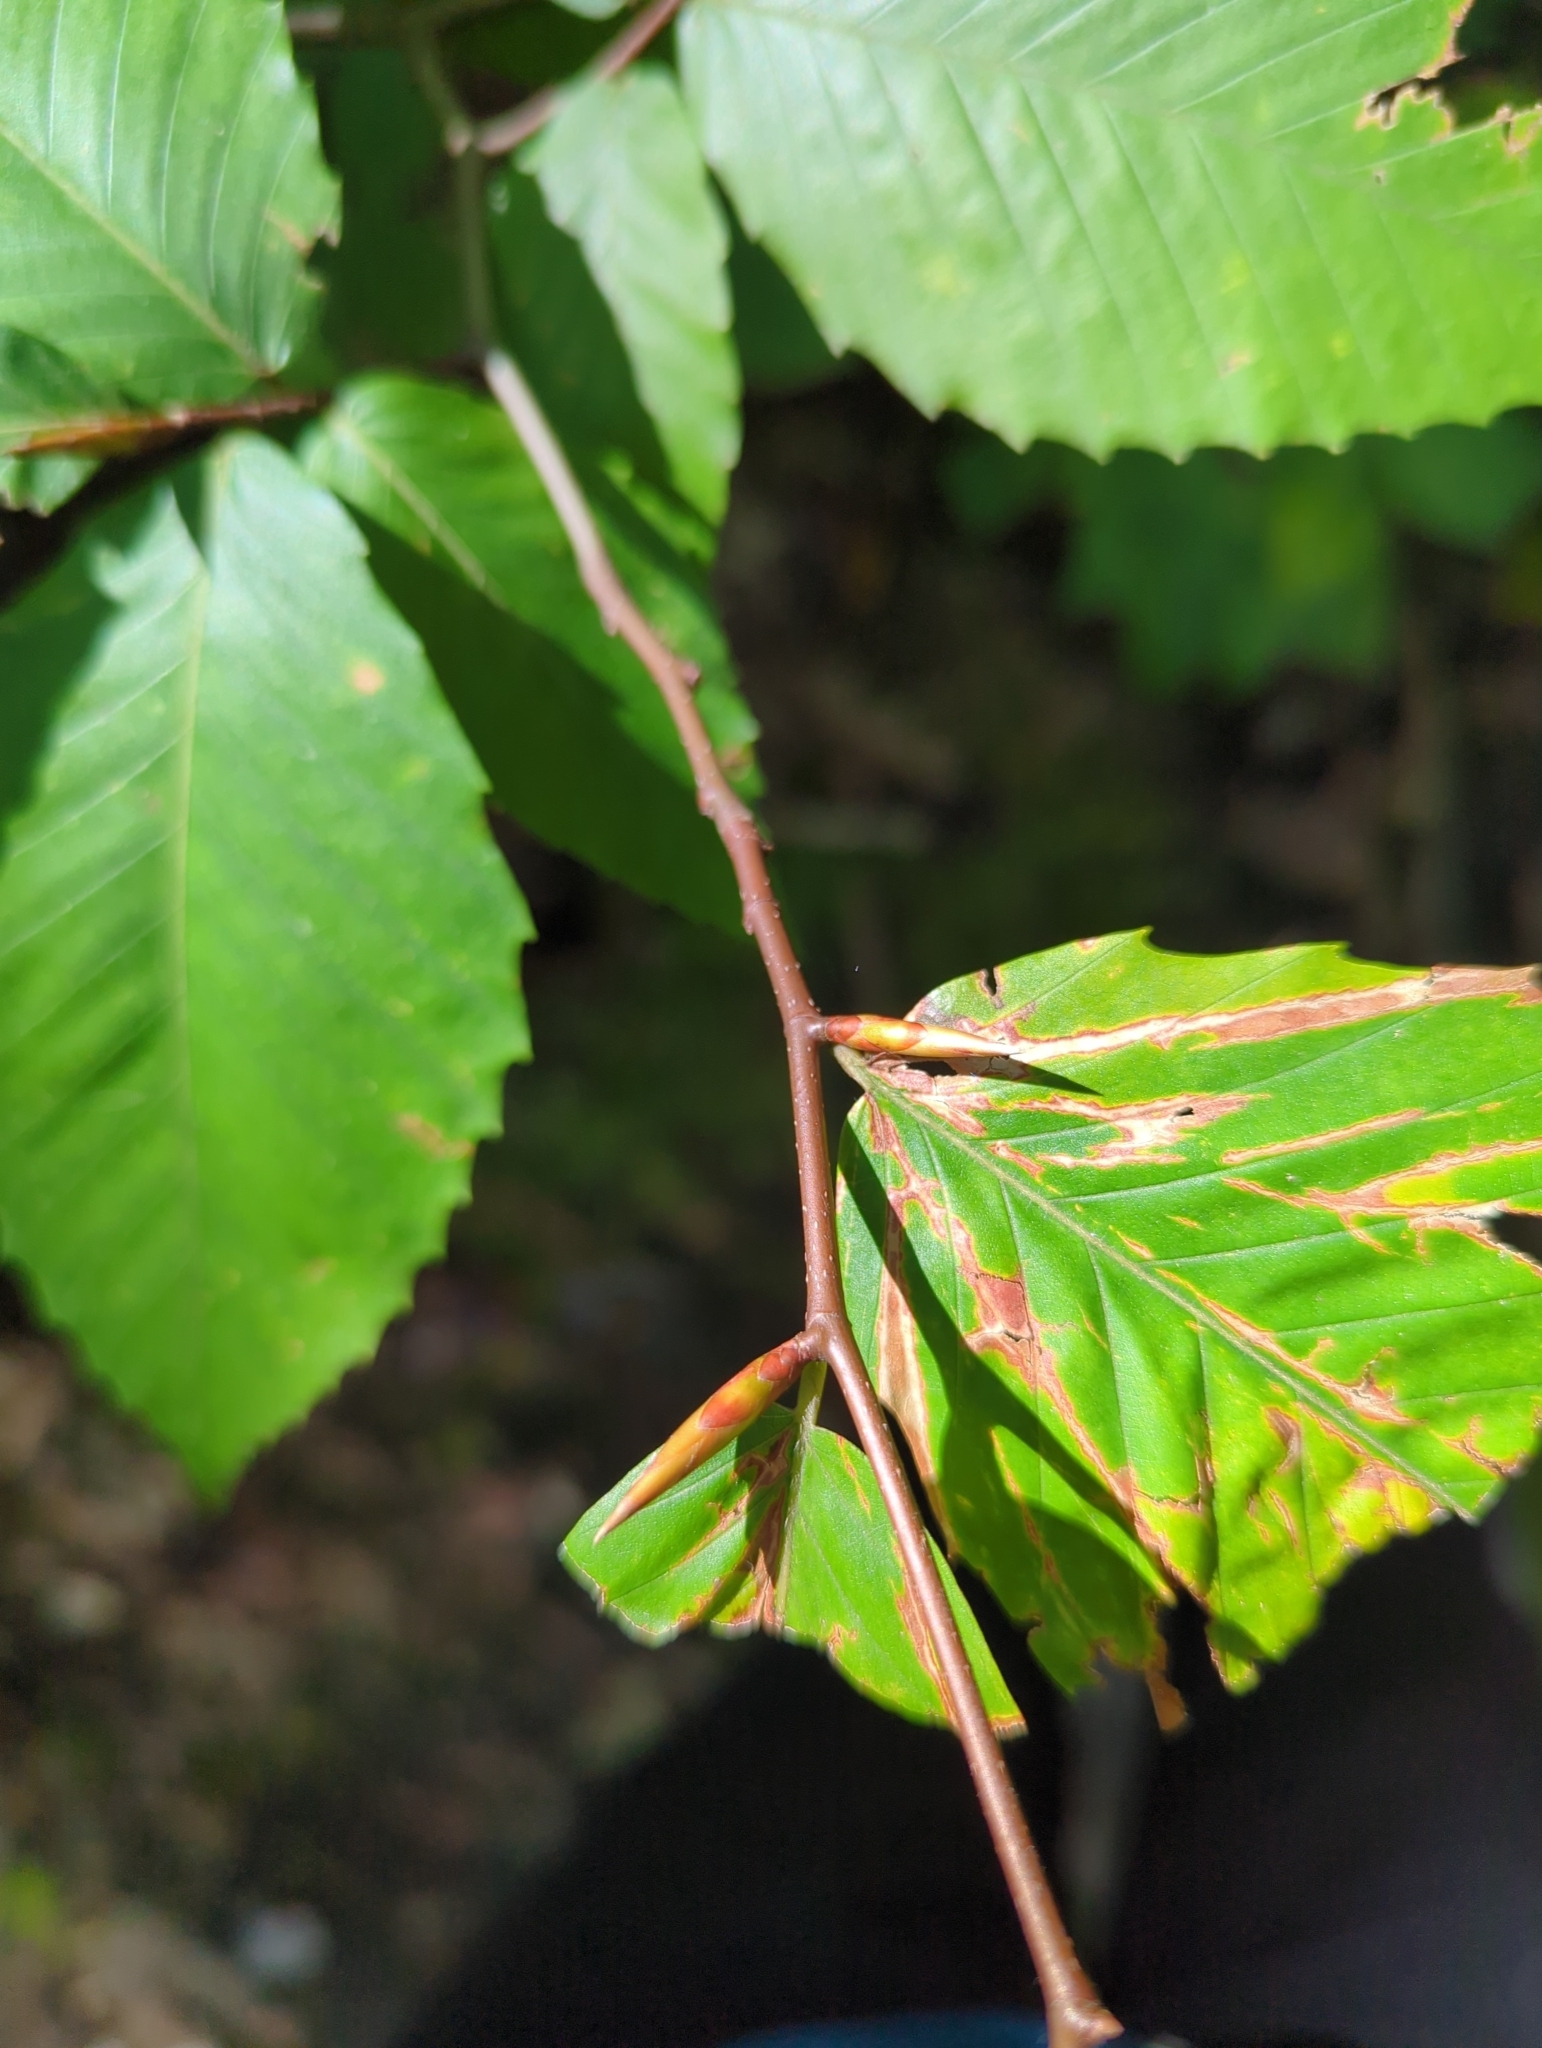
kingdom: Plantae
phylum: Tracheophyta
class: Magnoliopsida
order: Fagales
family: Fagaceae
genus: Fagus
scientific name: Fagus grandifolia
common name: American beech
